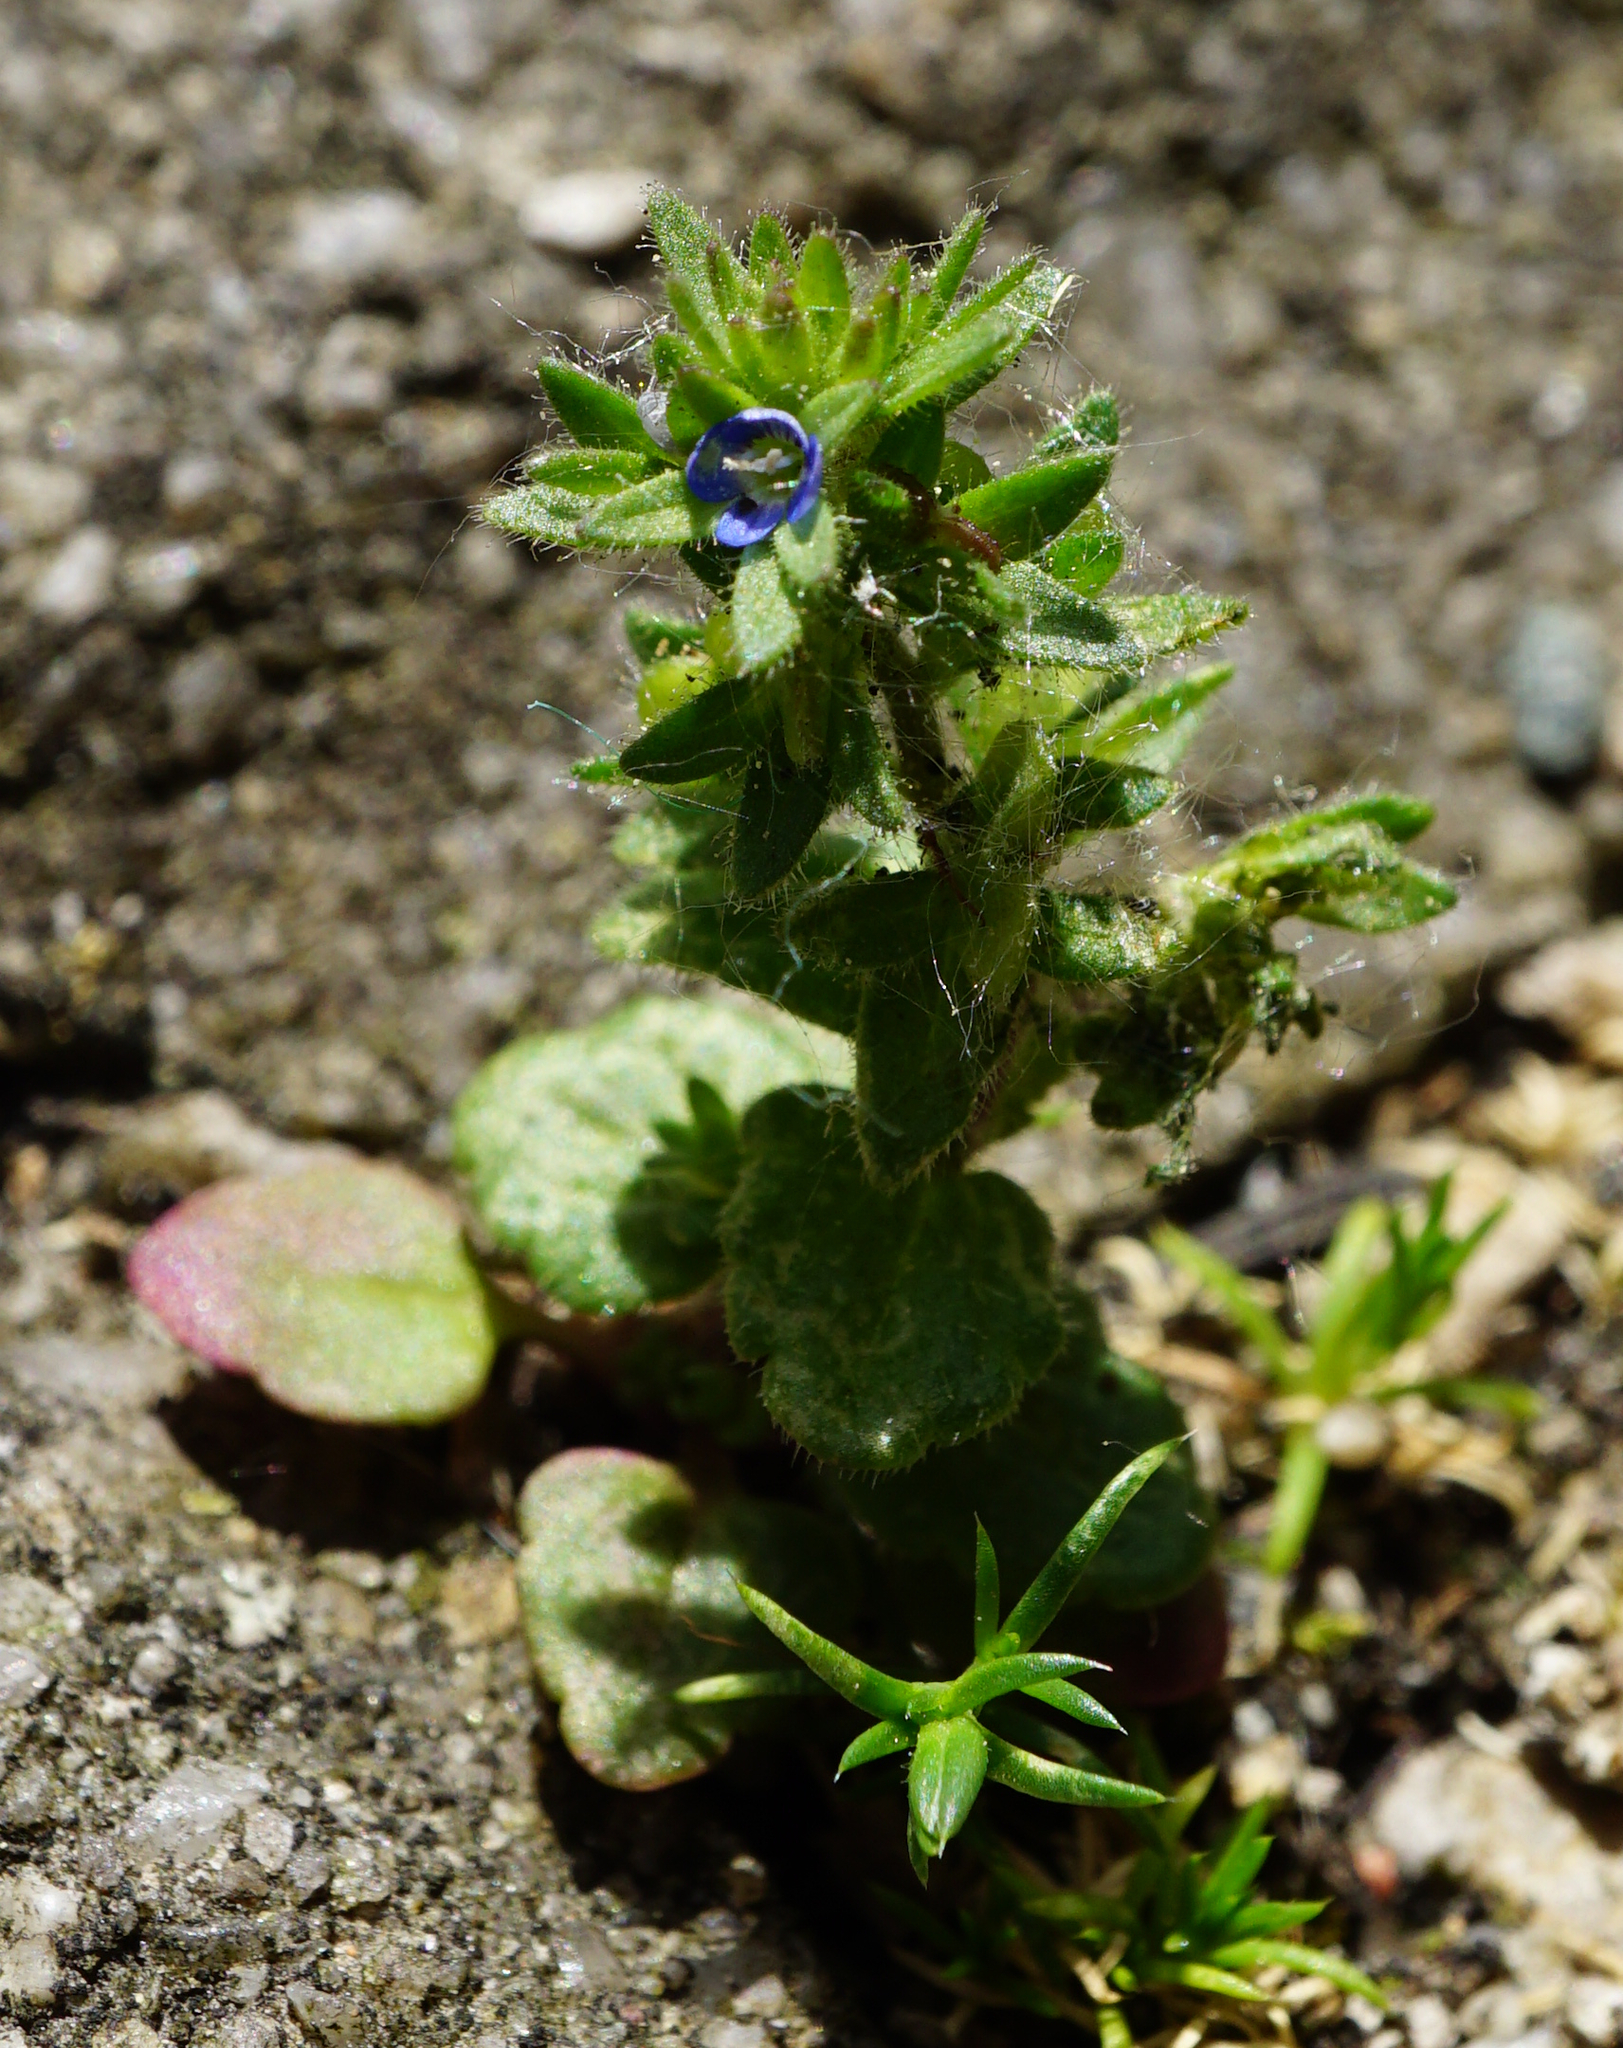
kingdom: Plantae
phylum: Tracheophyta
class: Magnoliopsida
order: Lamiales
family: Plantaginaceae
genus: Veronica
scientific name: Veronica arvensis
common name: Corn speedwell
